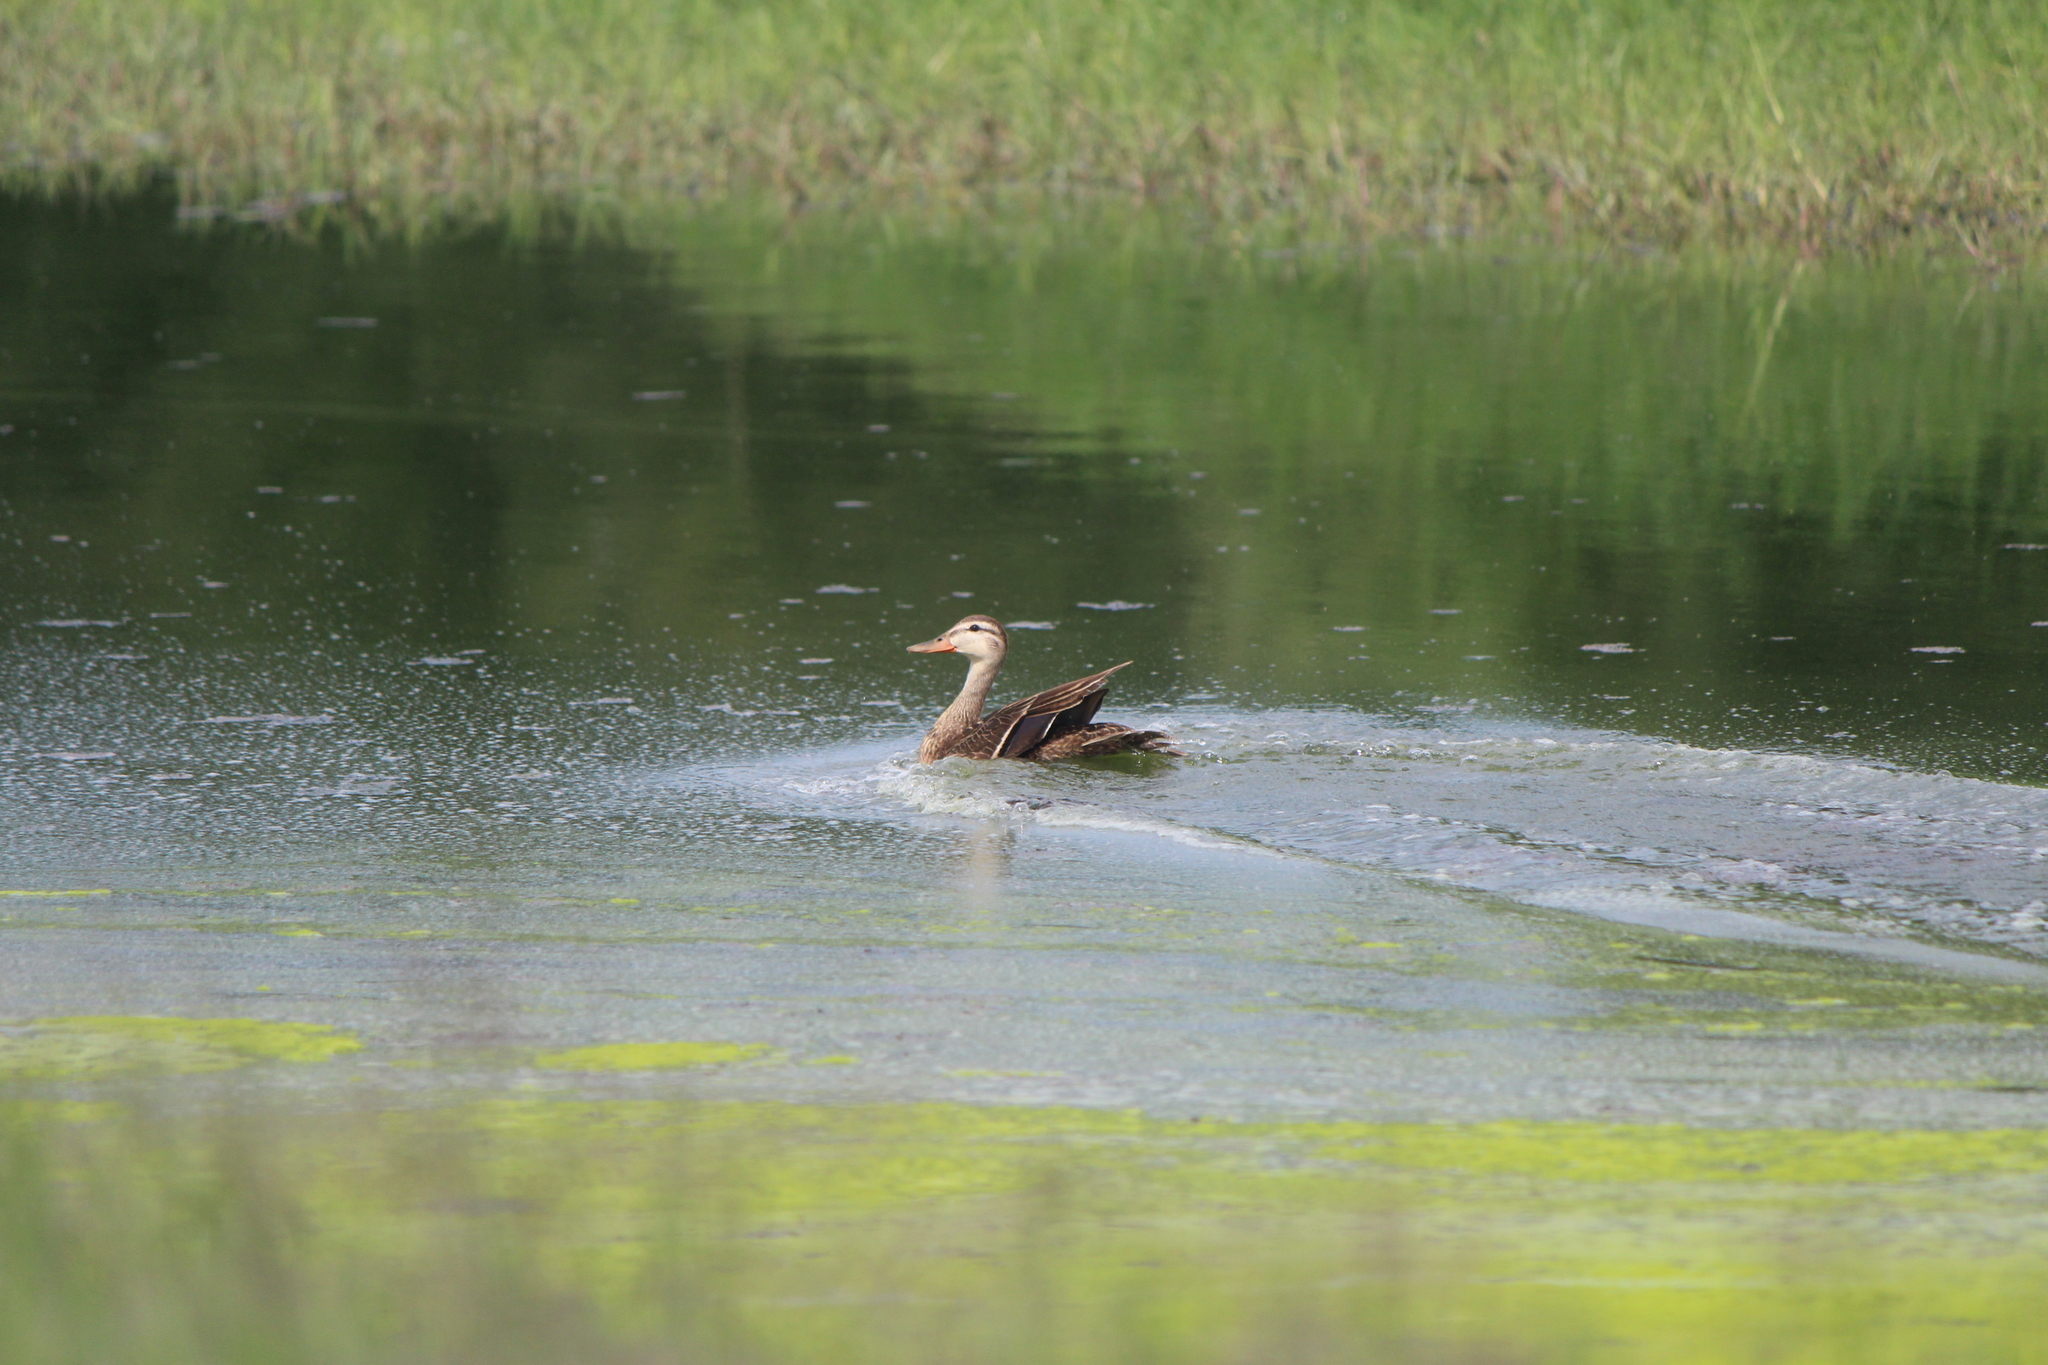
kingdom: Animalia
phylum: Chordata
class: Aves
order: Anseriformes
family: Anatidae
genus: Anas
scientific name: Anas diazi
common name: Mexican duck
